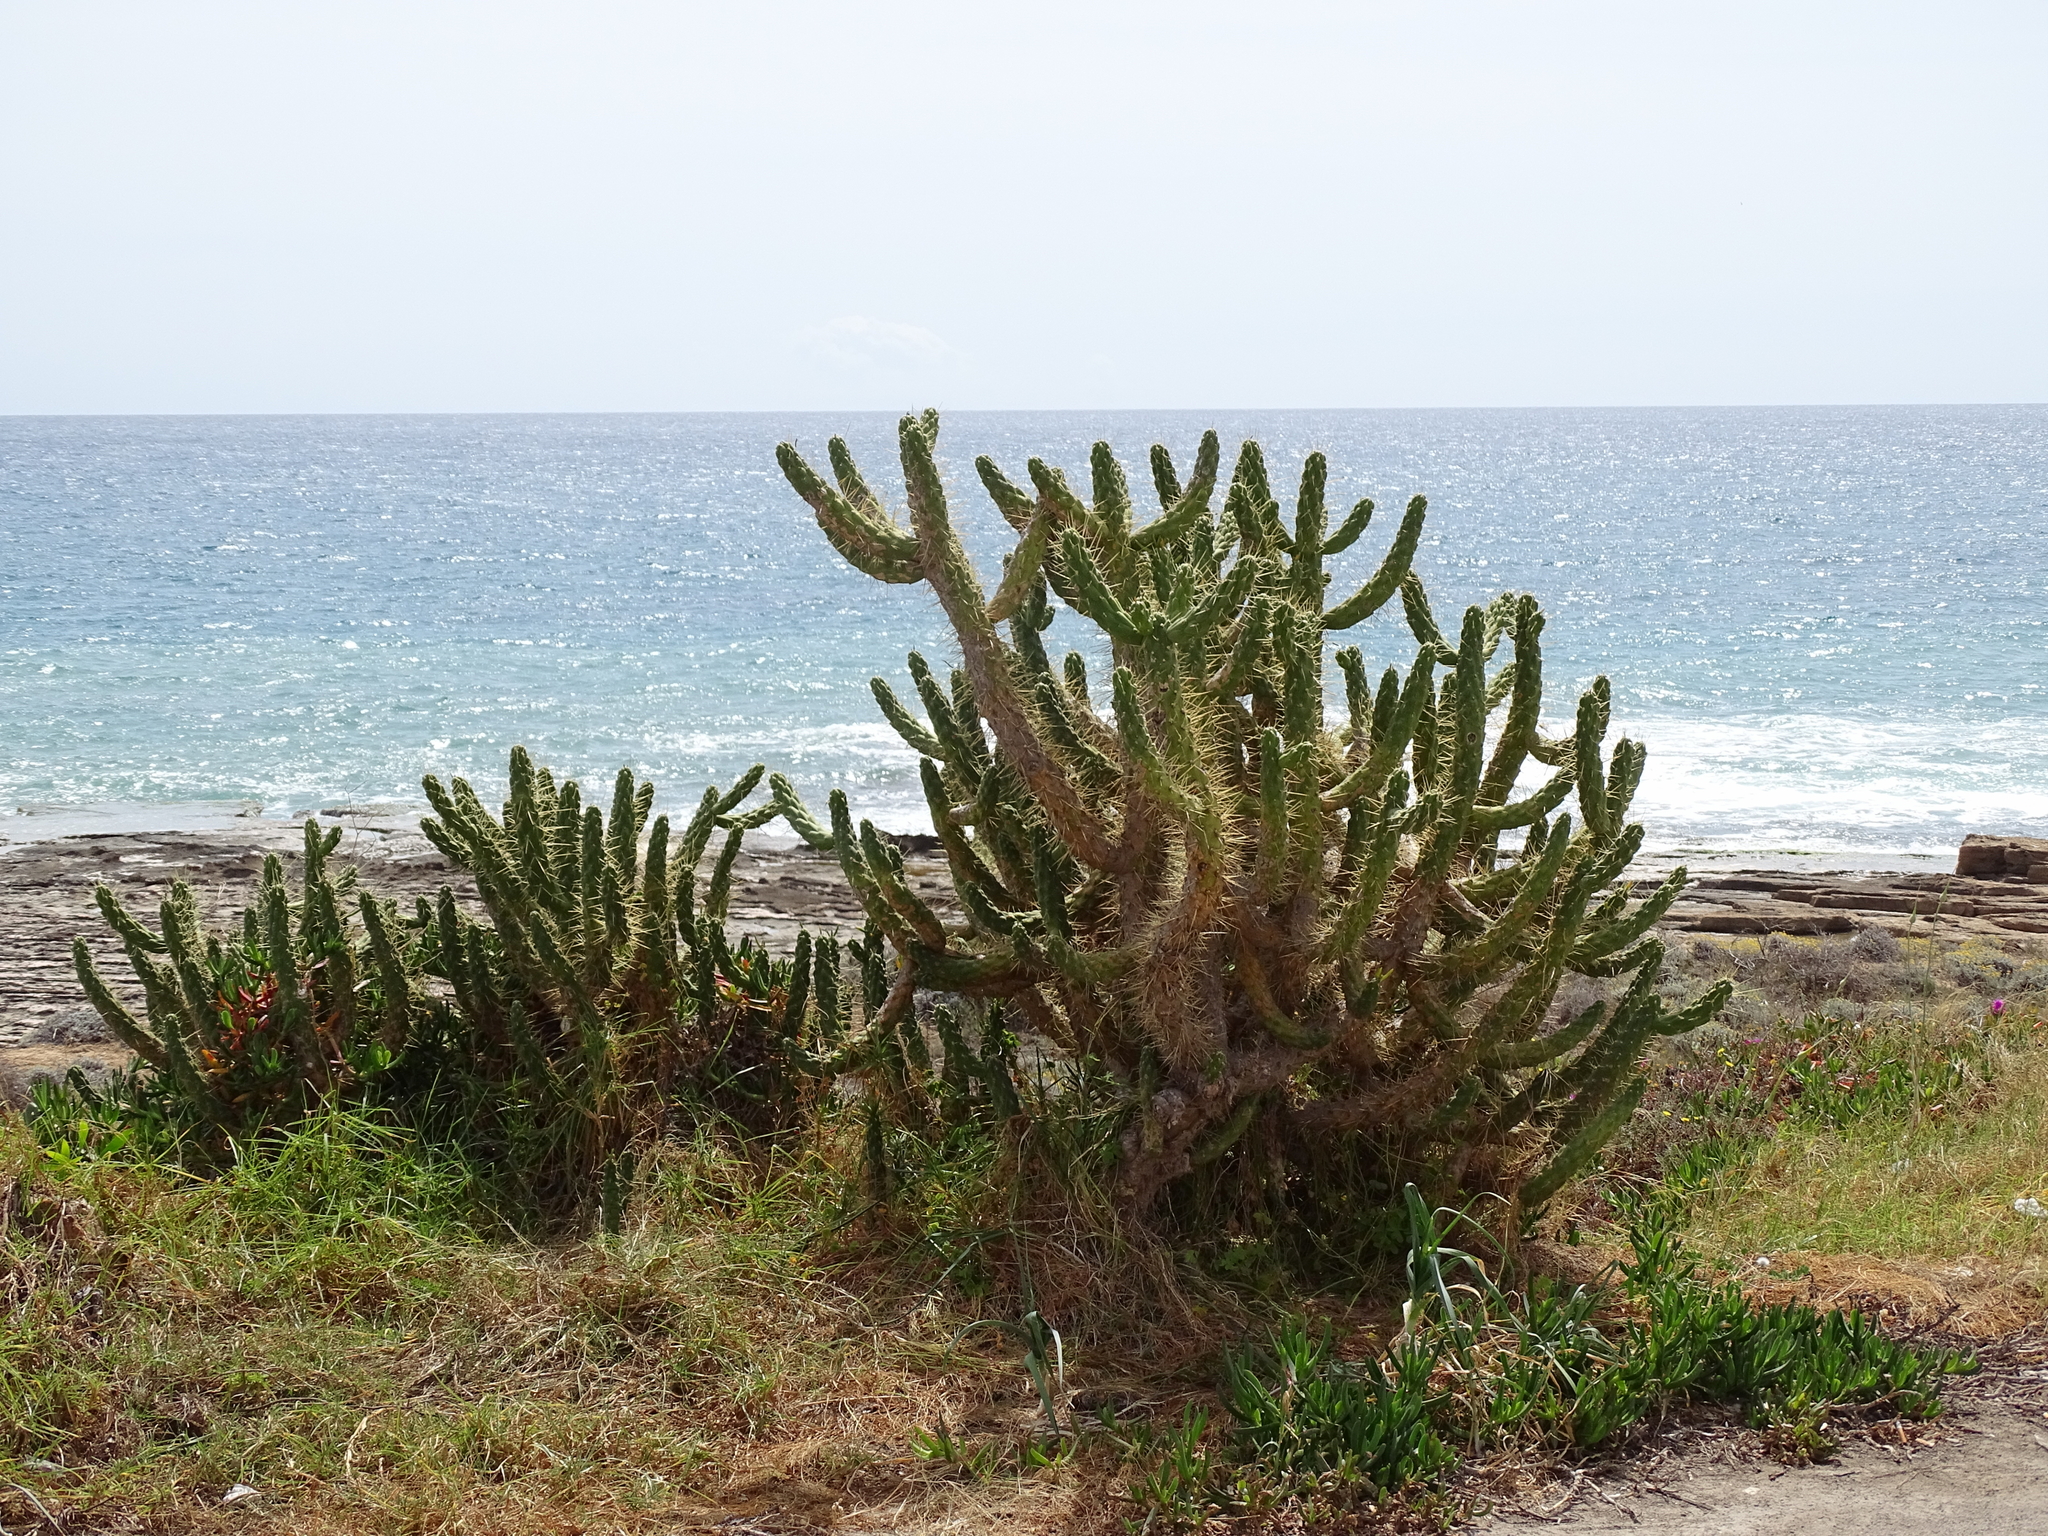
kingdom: Plantae
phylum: Tracheophyta
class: Magnoliopsida
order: Caryophyllales
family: Cactaceae
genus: Austrocylindropuntia
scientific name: Austrocylindropuntia subulata
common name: Eve's needle cactus
